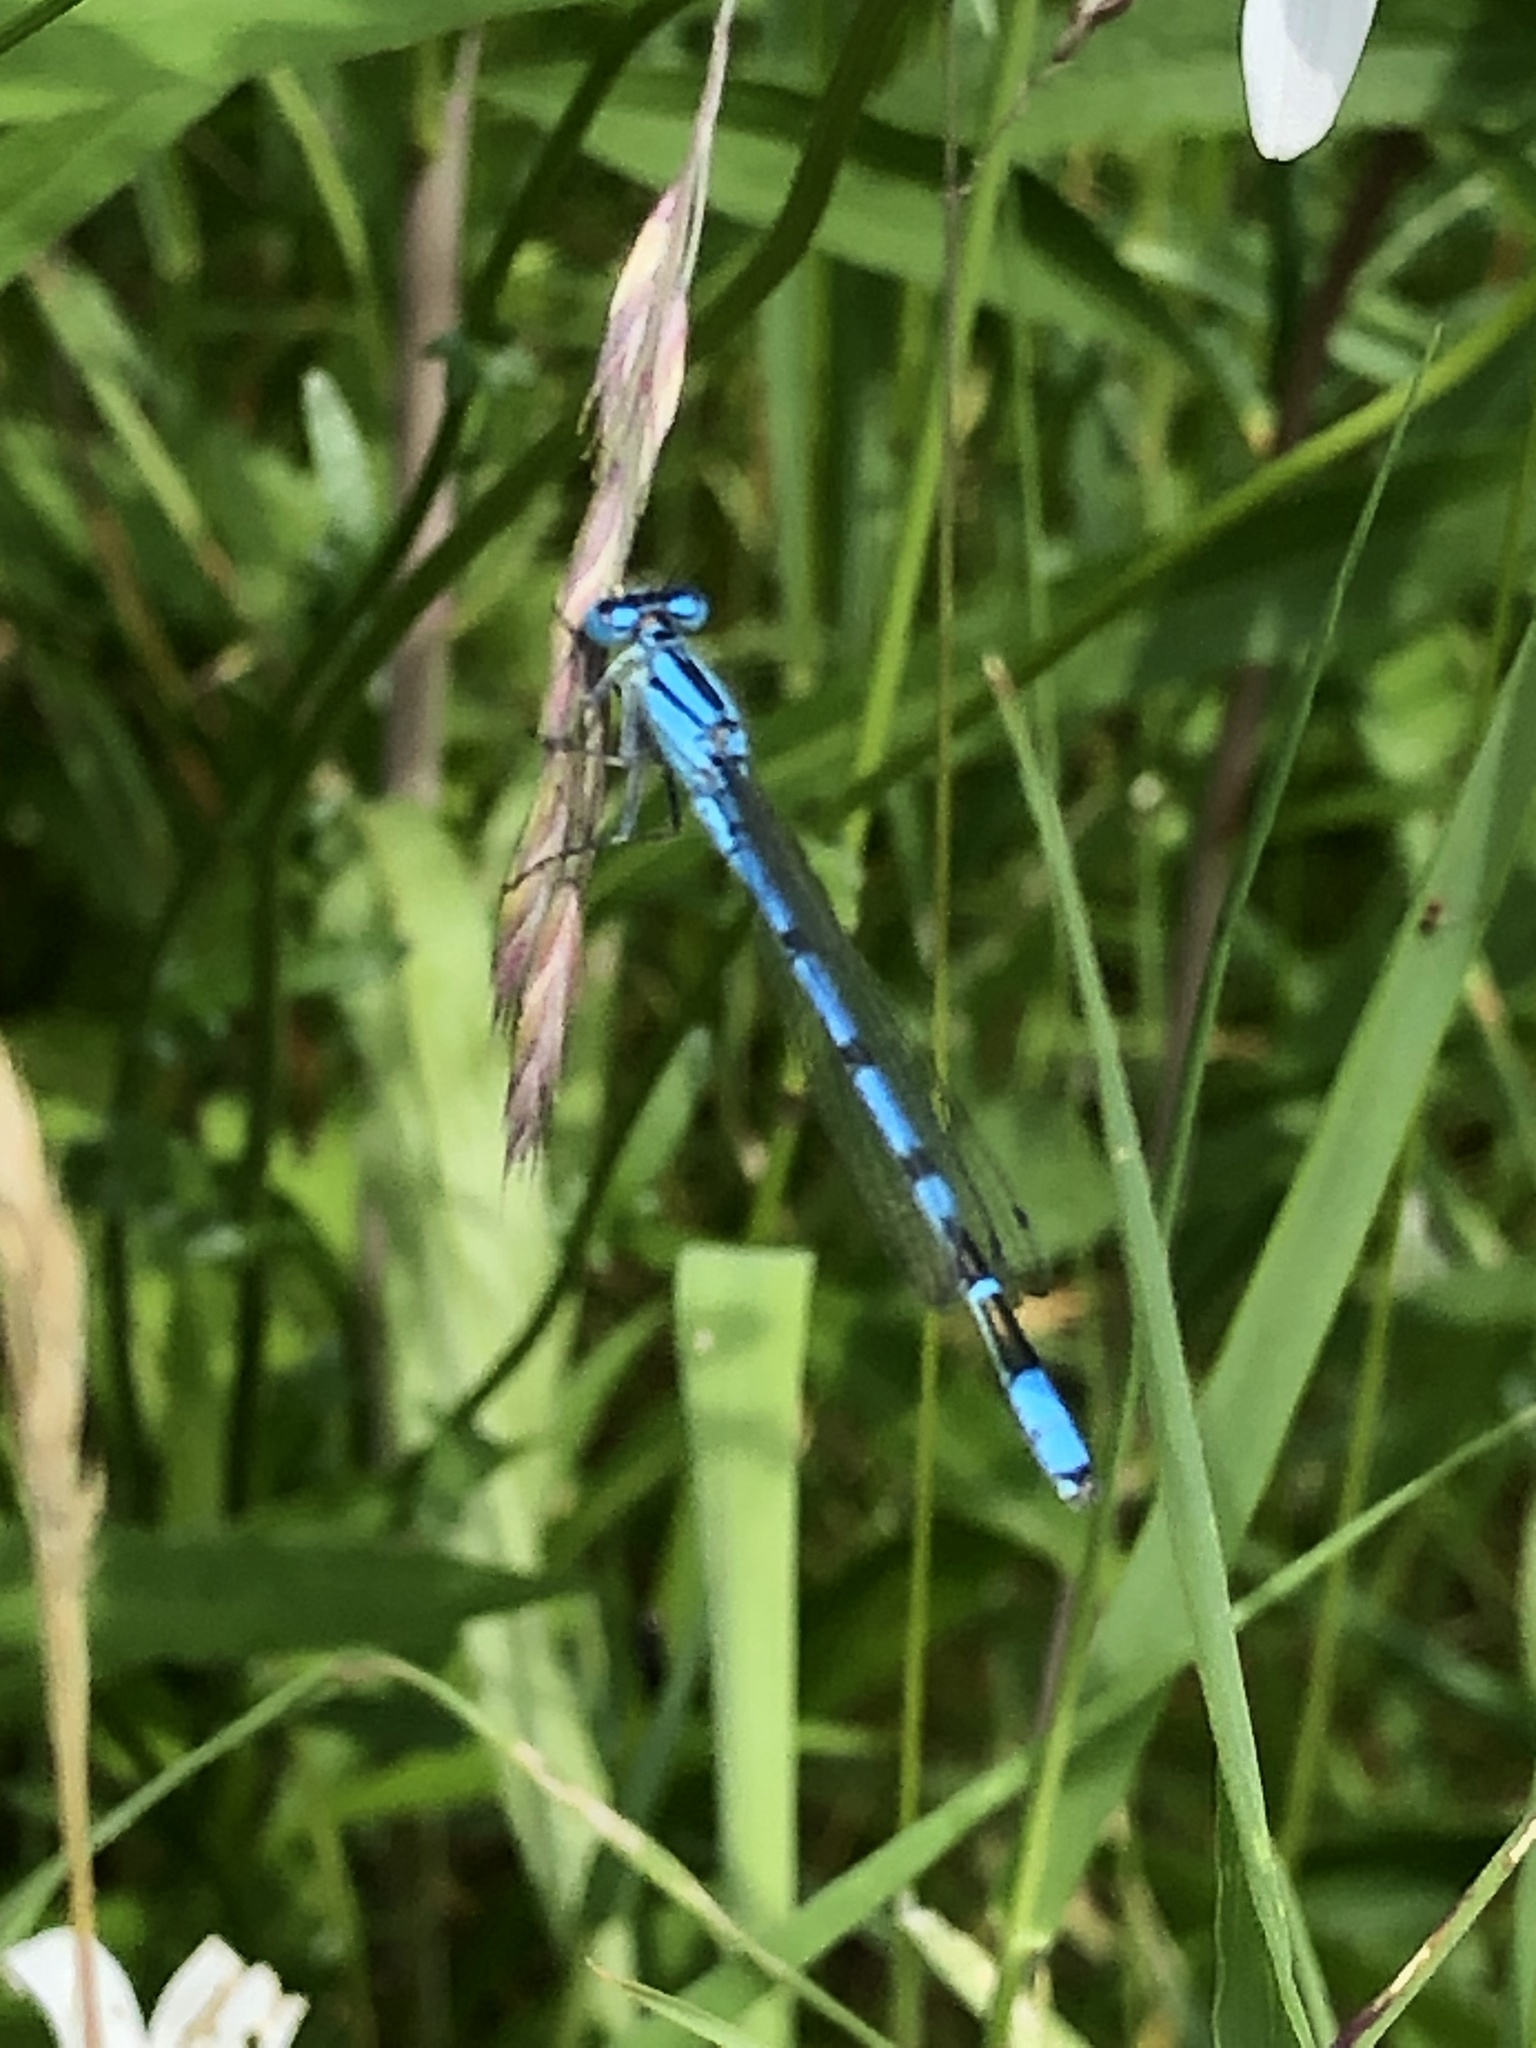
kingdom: Animalia
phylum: Arthropoda
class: Insecta
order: Odonata
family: Coenagrionidae
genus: Enallagma
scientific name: Enallagma cyathigerum
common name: Common blue damselfly
